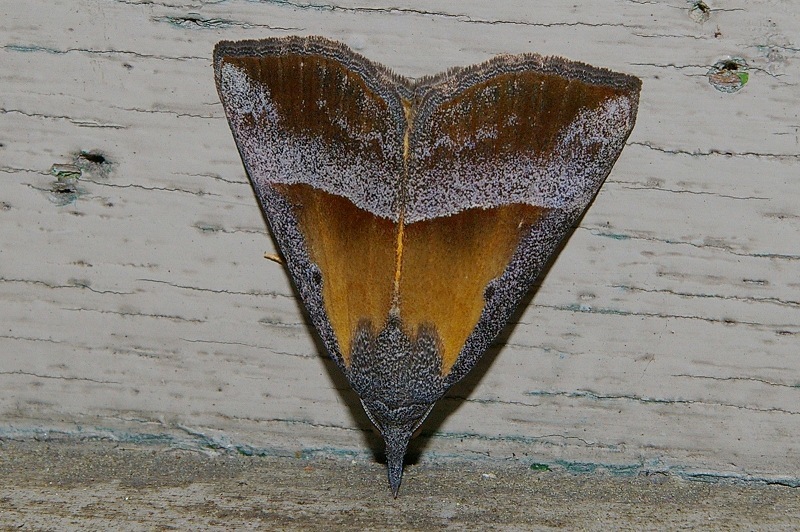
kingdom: Animalia
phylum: Arthropoda
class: Insecta
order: Lepidoptera
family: Erebidae
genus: Hypena
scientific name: Hypena claripennis
